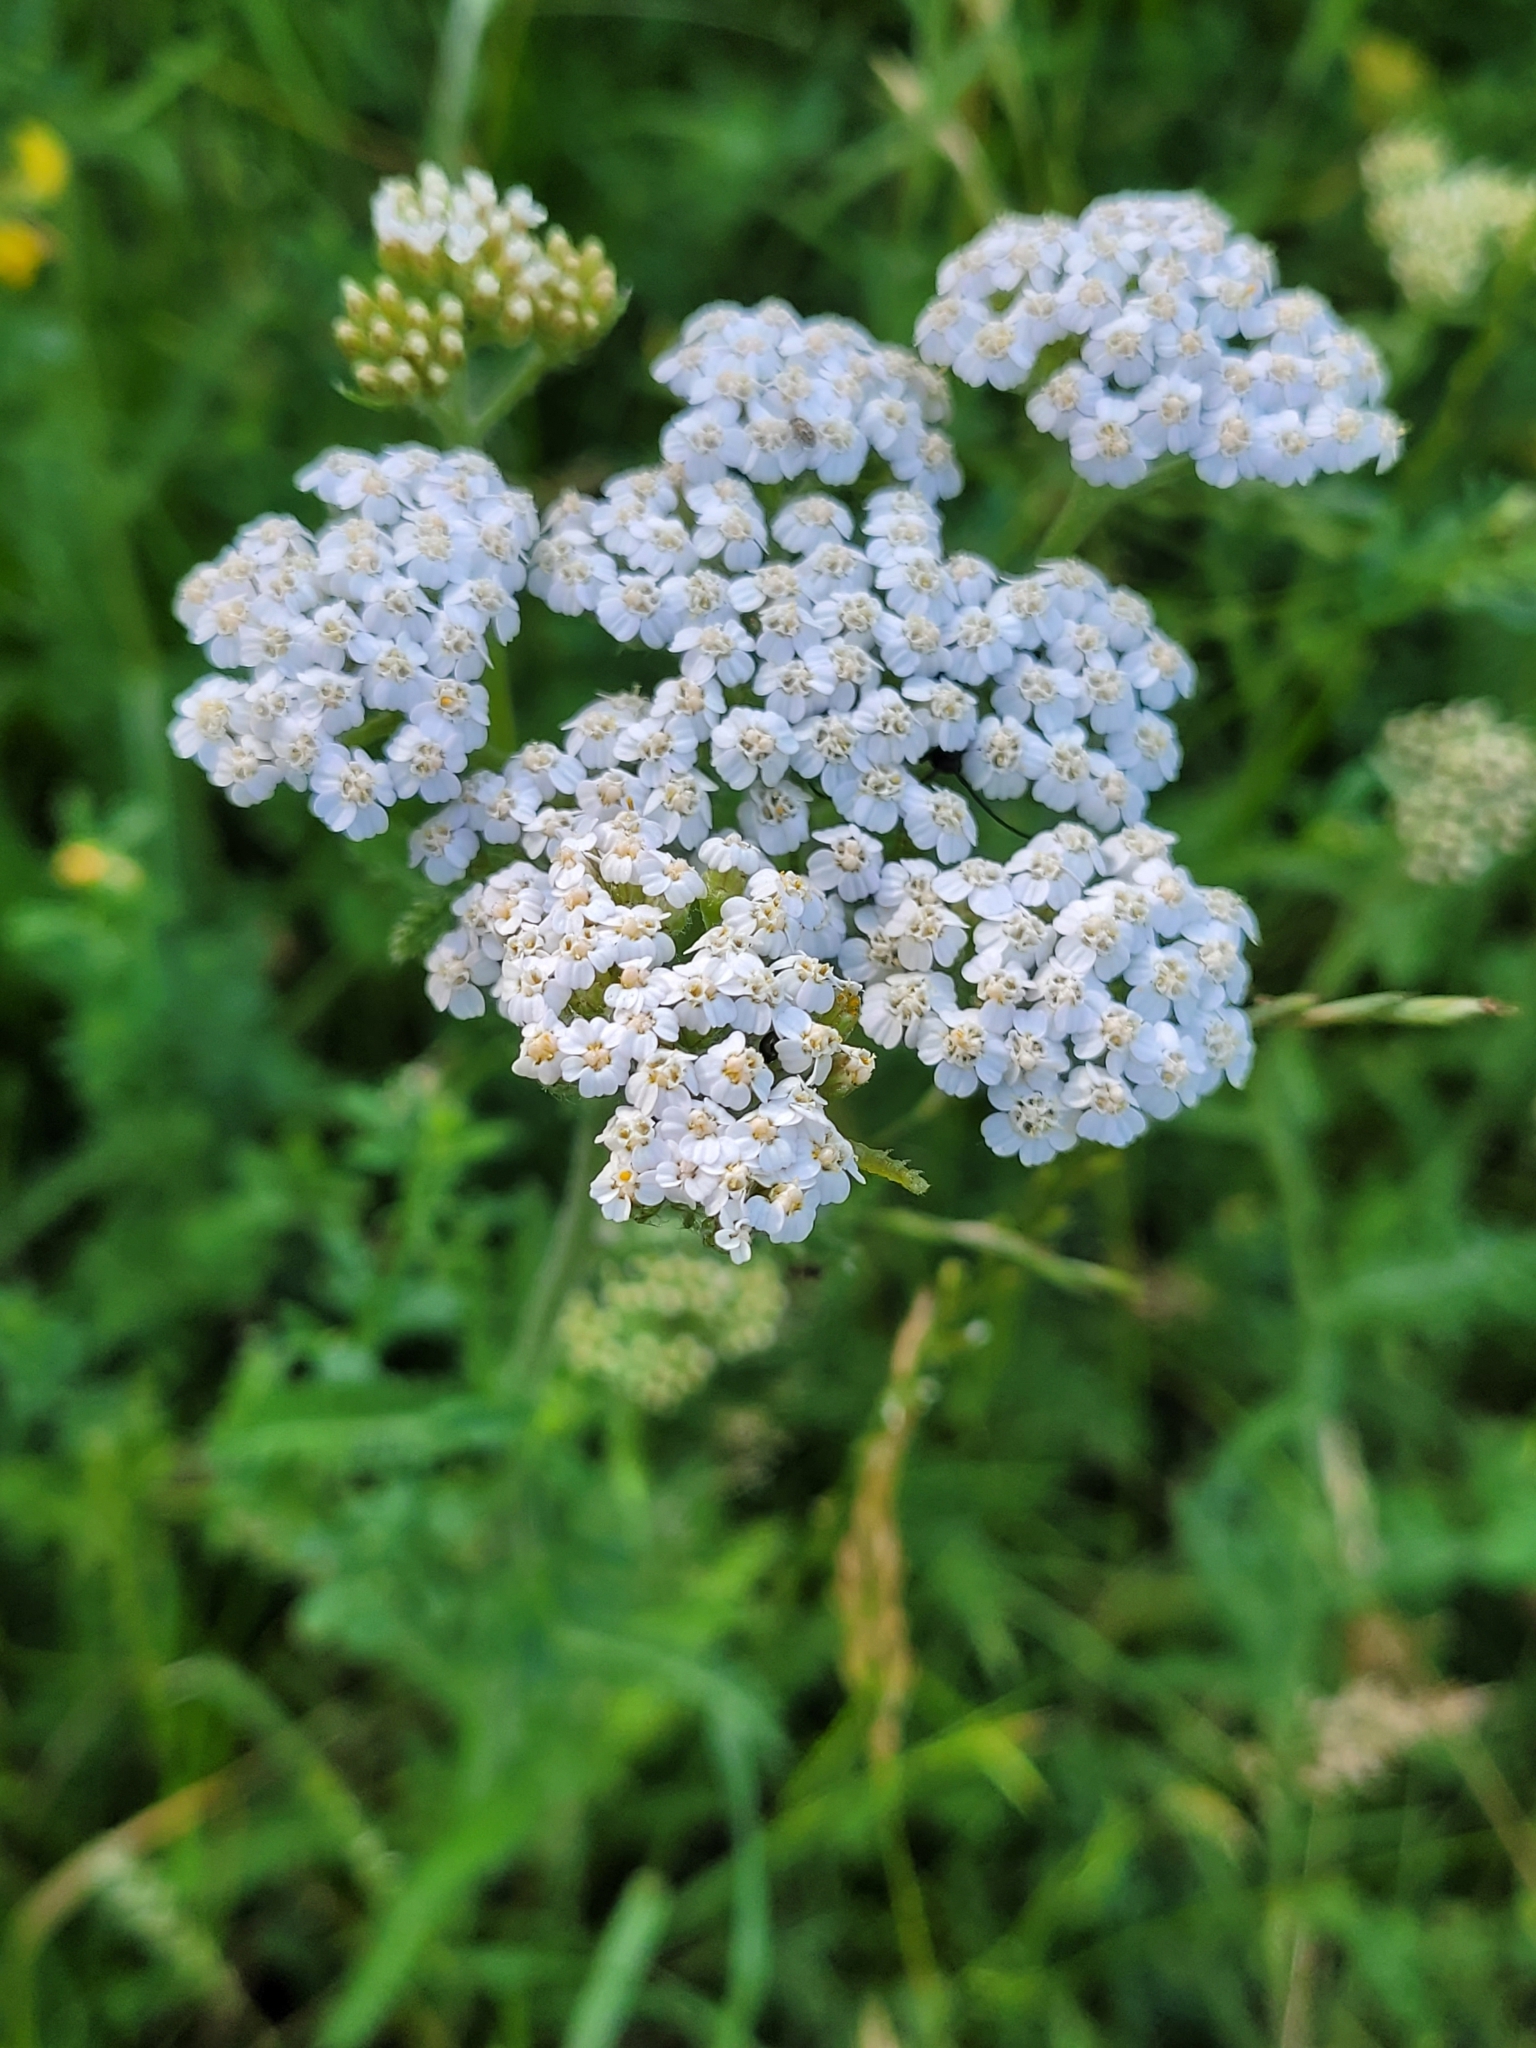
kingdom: Plantae
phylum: Tracheophyta
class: Magnoliopsida
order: Asterales
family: Asteraceae
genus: Achillea
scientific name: Achillea millefolium
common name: Yarrow
